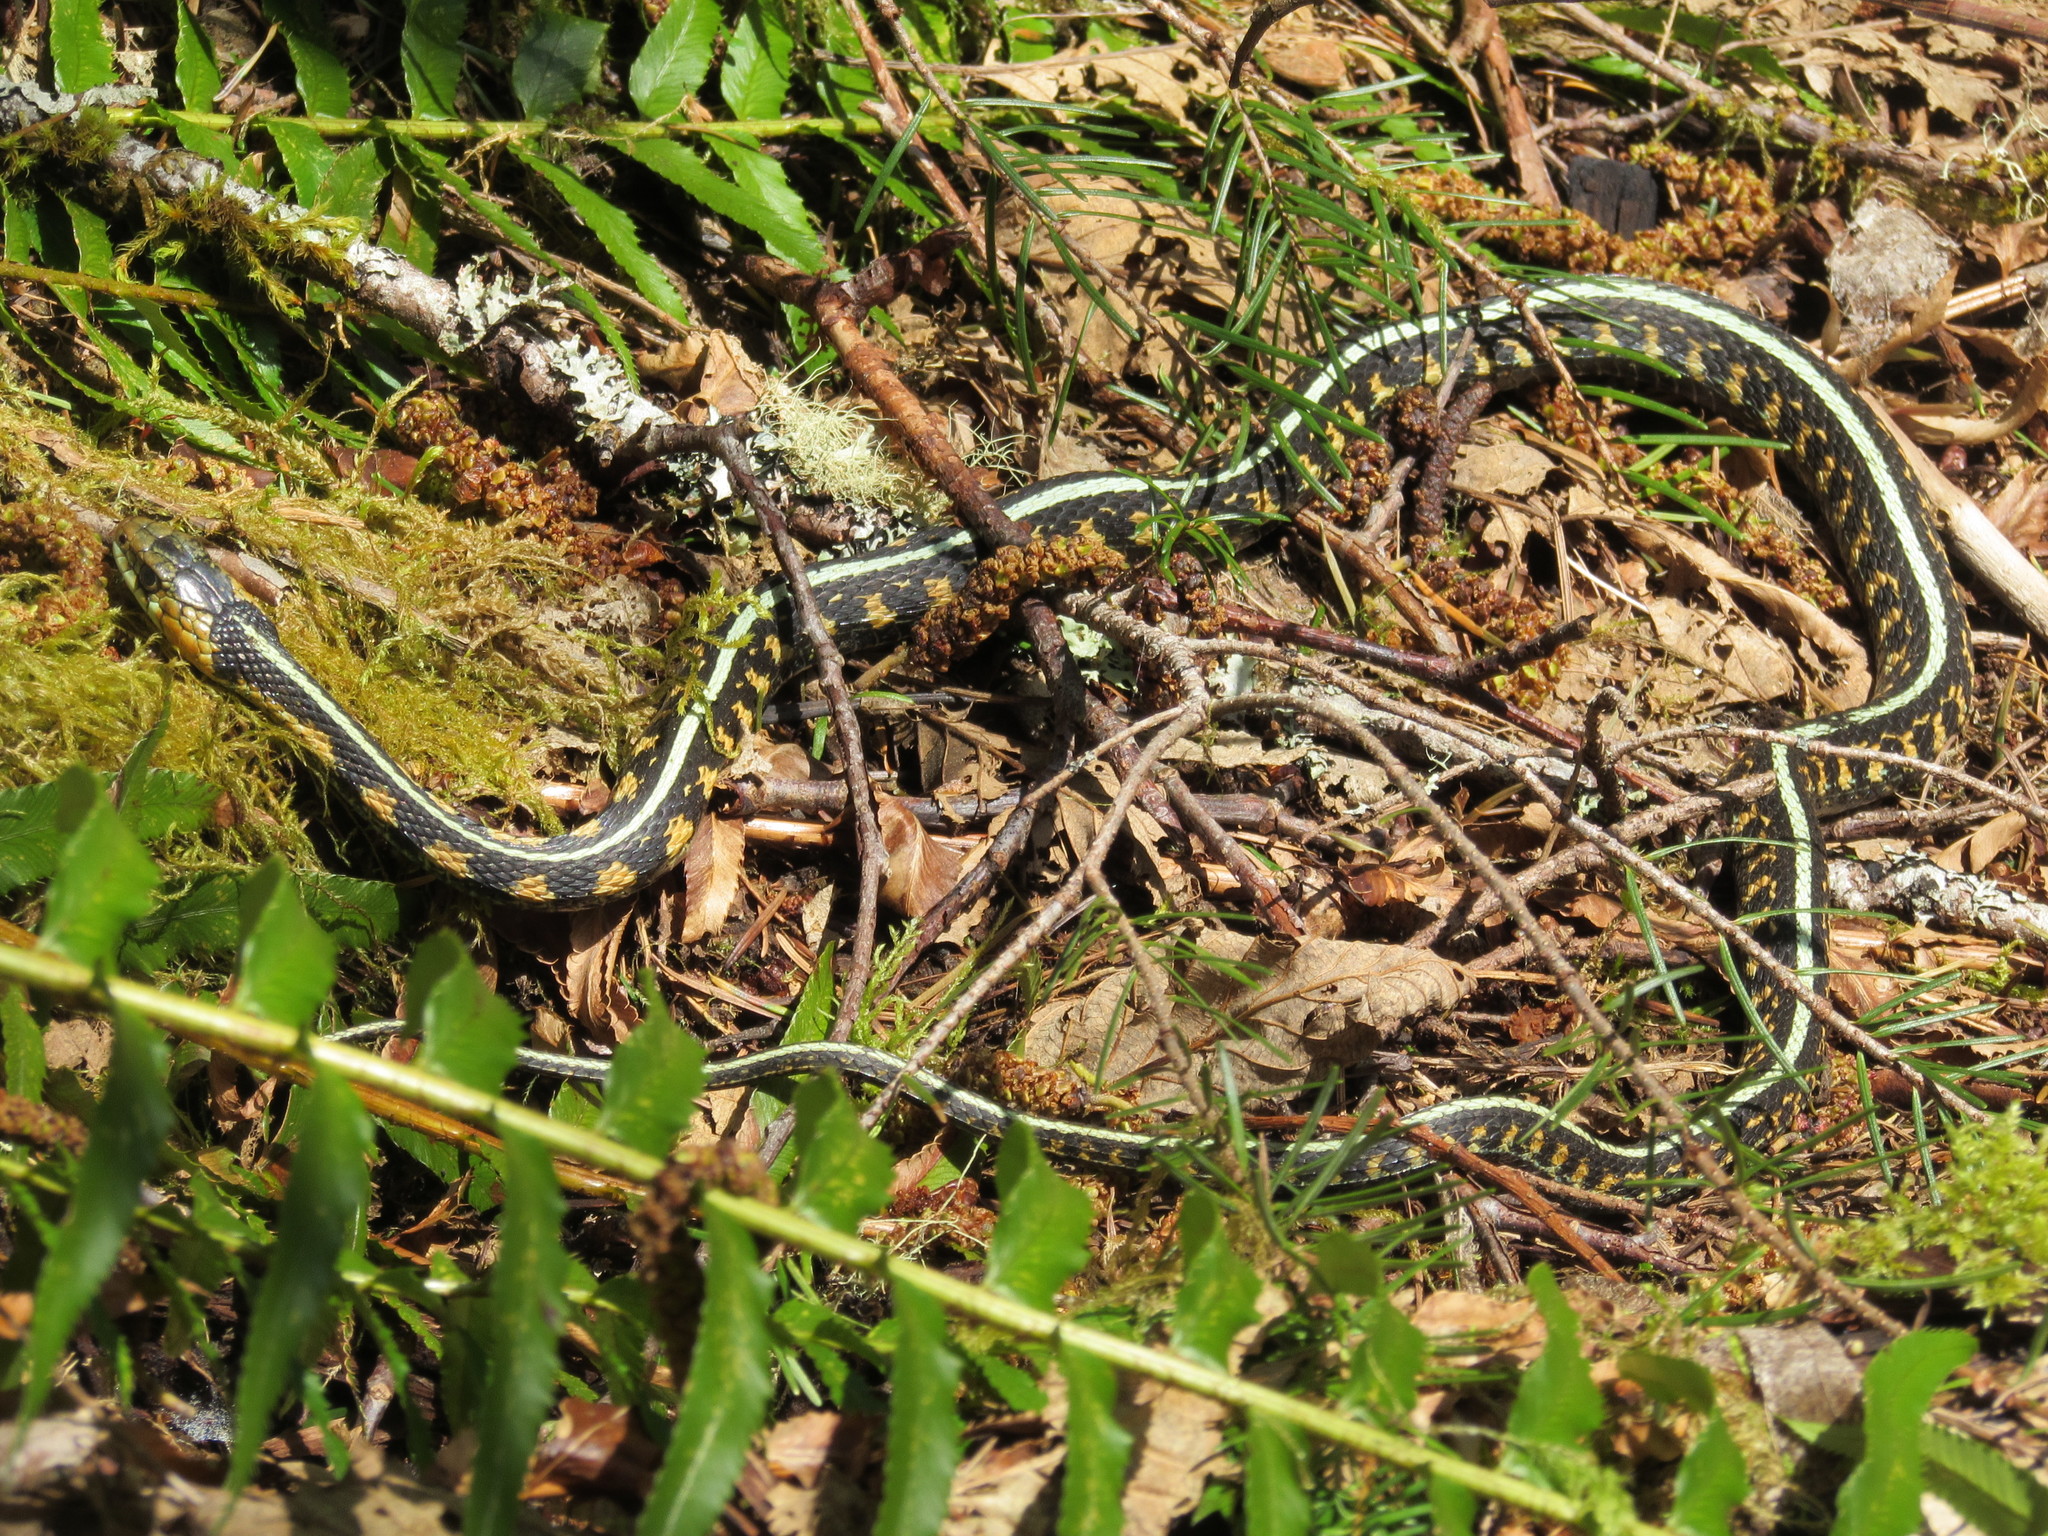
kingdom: Animalia
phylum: Chordata
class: Squamata
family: Colubridae
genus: Thamnophis
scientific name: Thamnophis sirtalis
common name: Common garter snake
